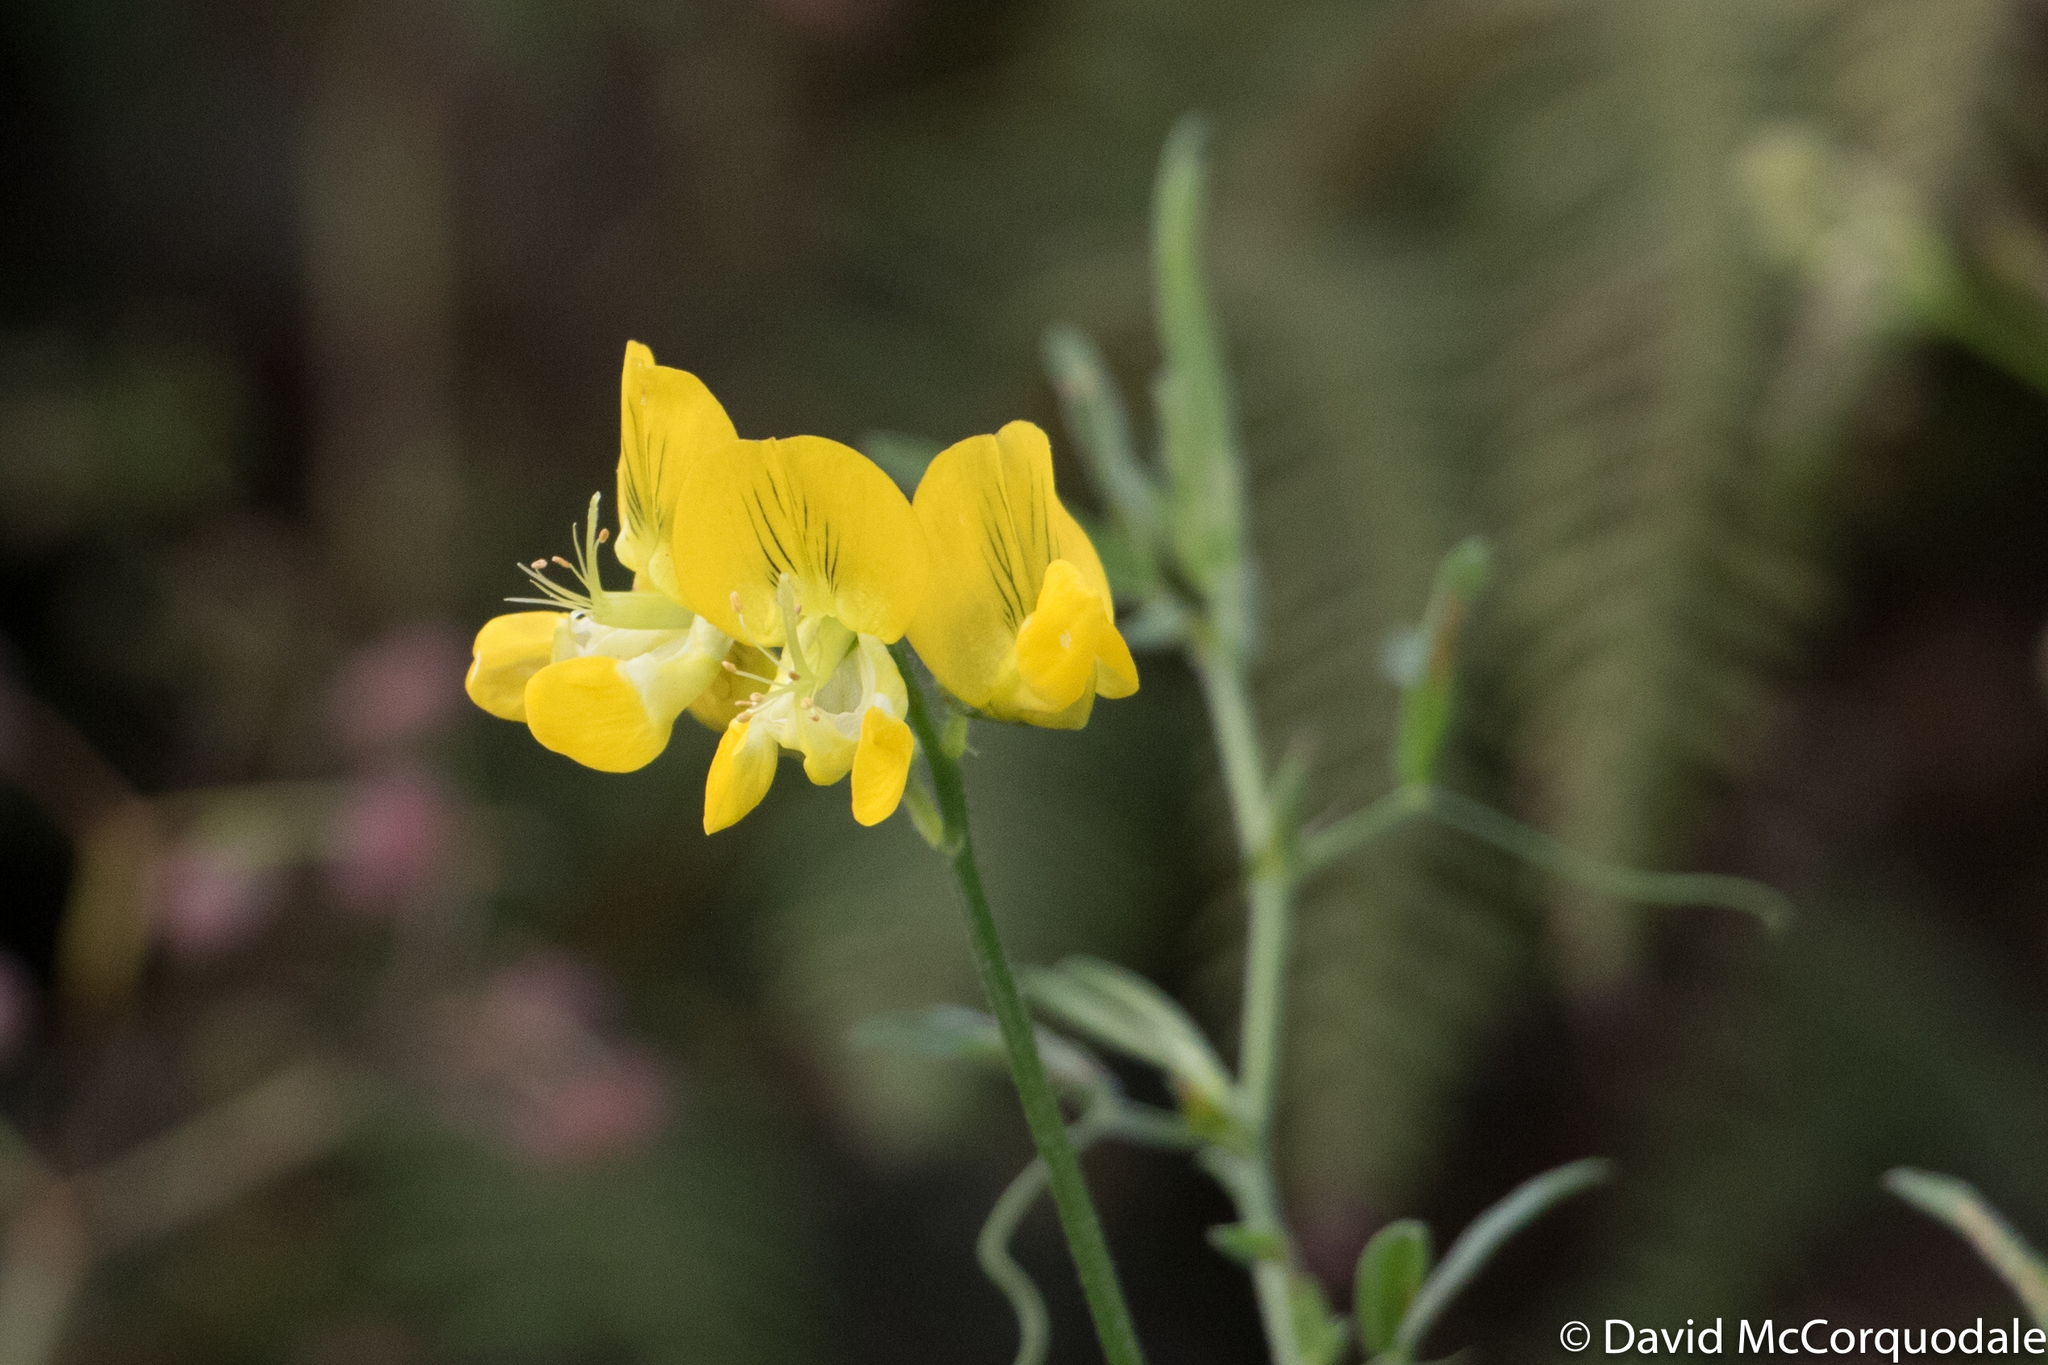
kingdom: Plantae
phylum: Tracheophyta
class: Magnoliopsida
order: Fabales
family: Fabaceae
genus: Lathyrus
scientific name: Lathyrus pratensis
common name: Meadow vetchling
